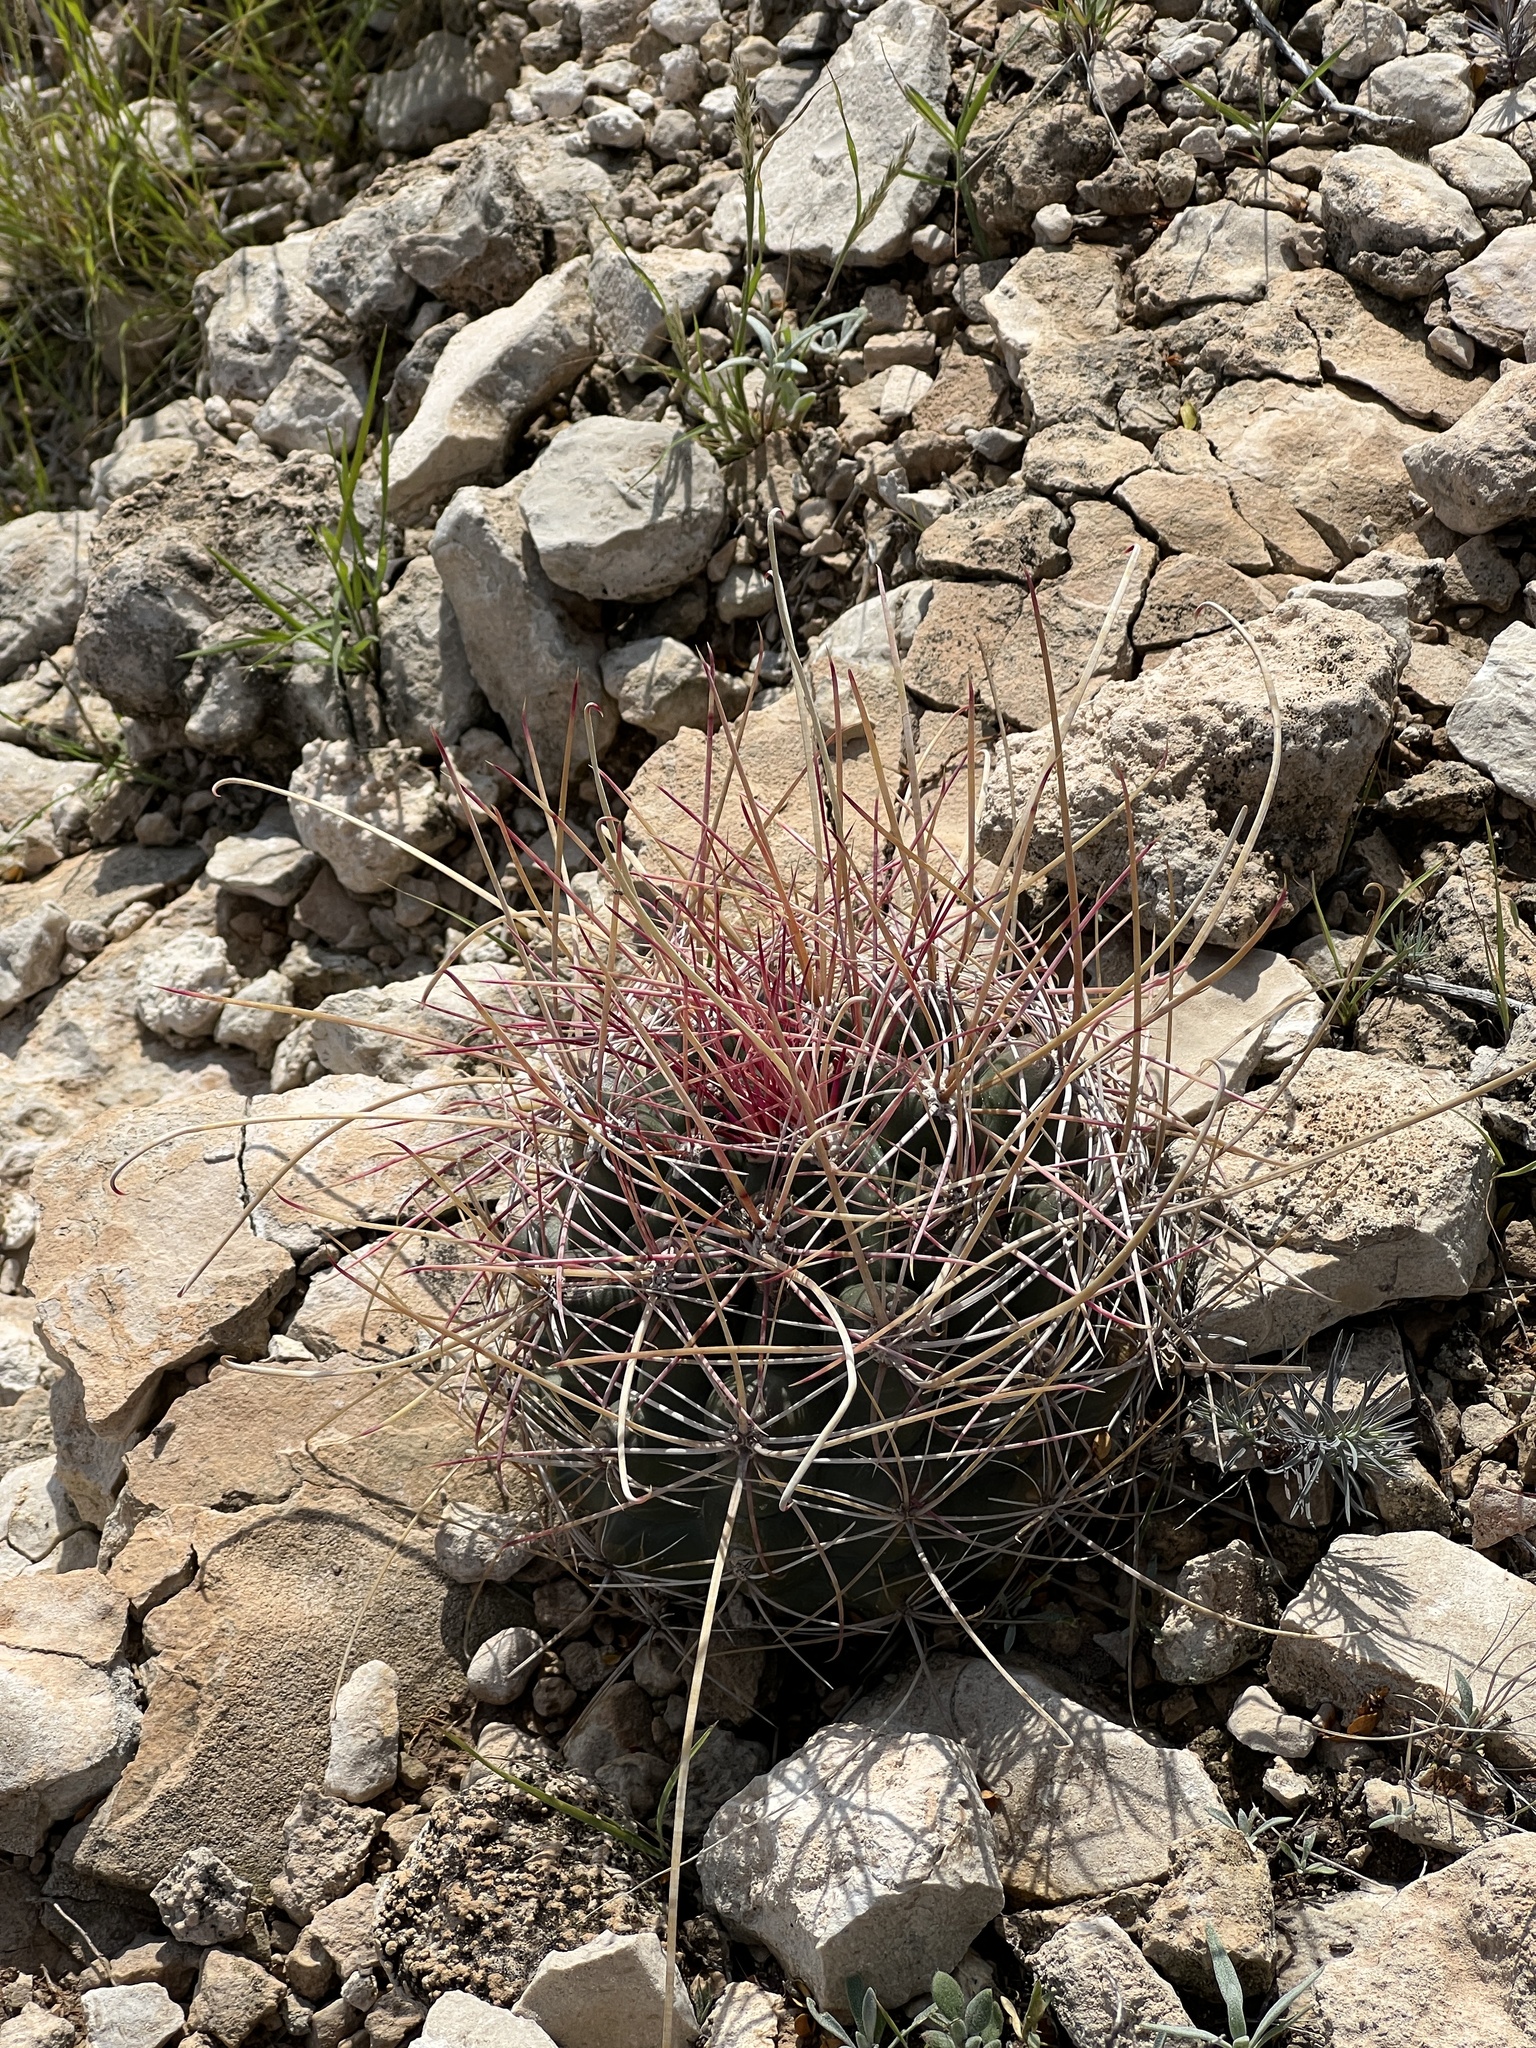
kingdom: Plantae
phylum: Tracheophyta
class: Magnoliopsida
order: Caryophyllales
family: Cactaceae
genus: Bisnaga
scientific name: Bisnaga hamatacantha
